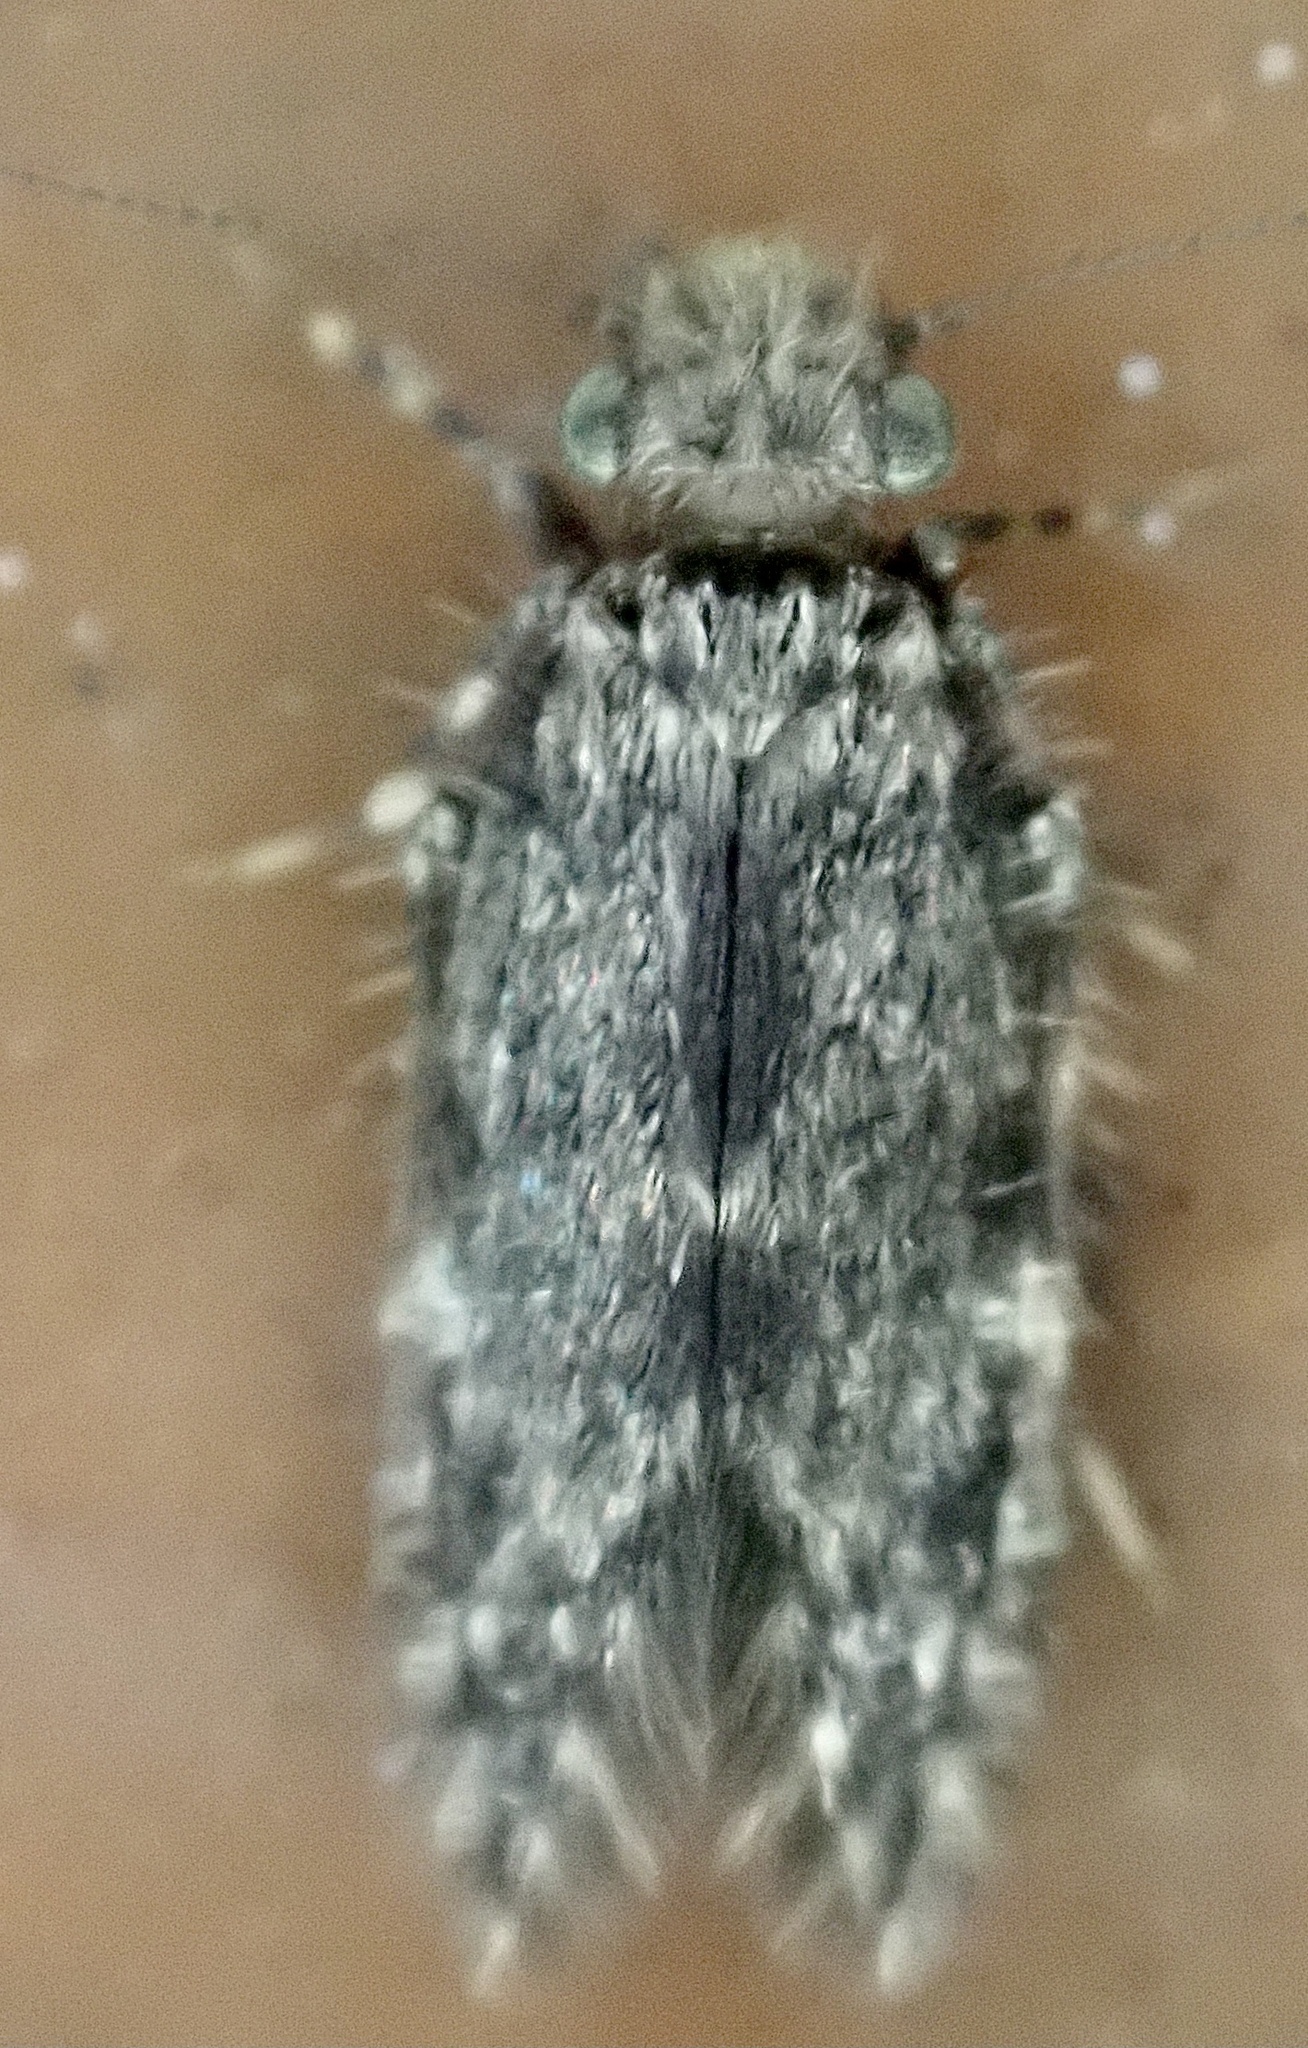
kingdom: Animalia
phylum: Arthropoda
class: Insecta
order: Psocodea
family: Lepidopsocidae
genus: Echmepteryx
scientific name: Echmepteryx hageni
